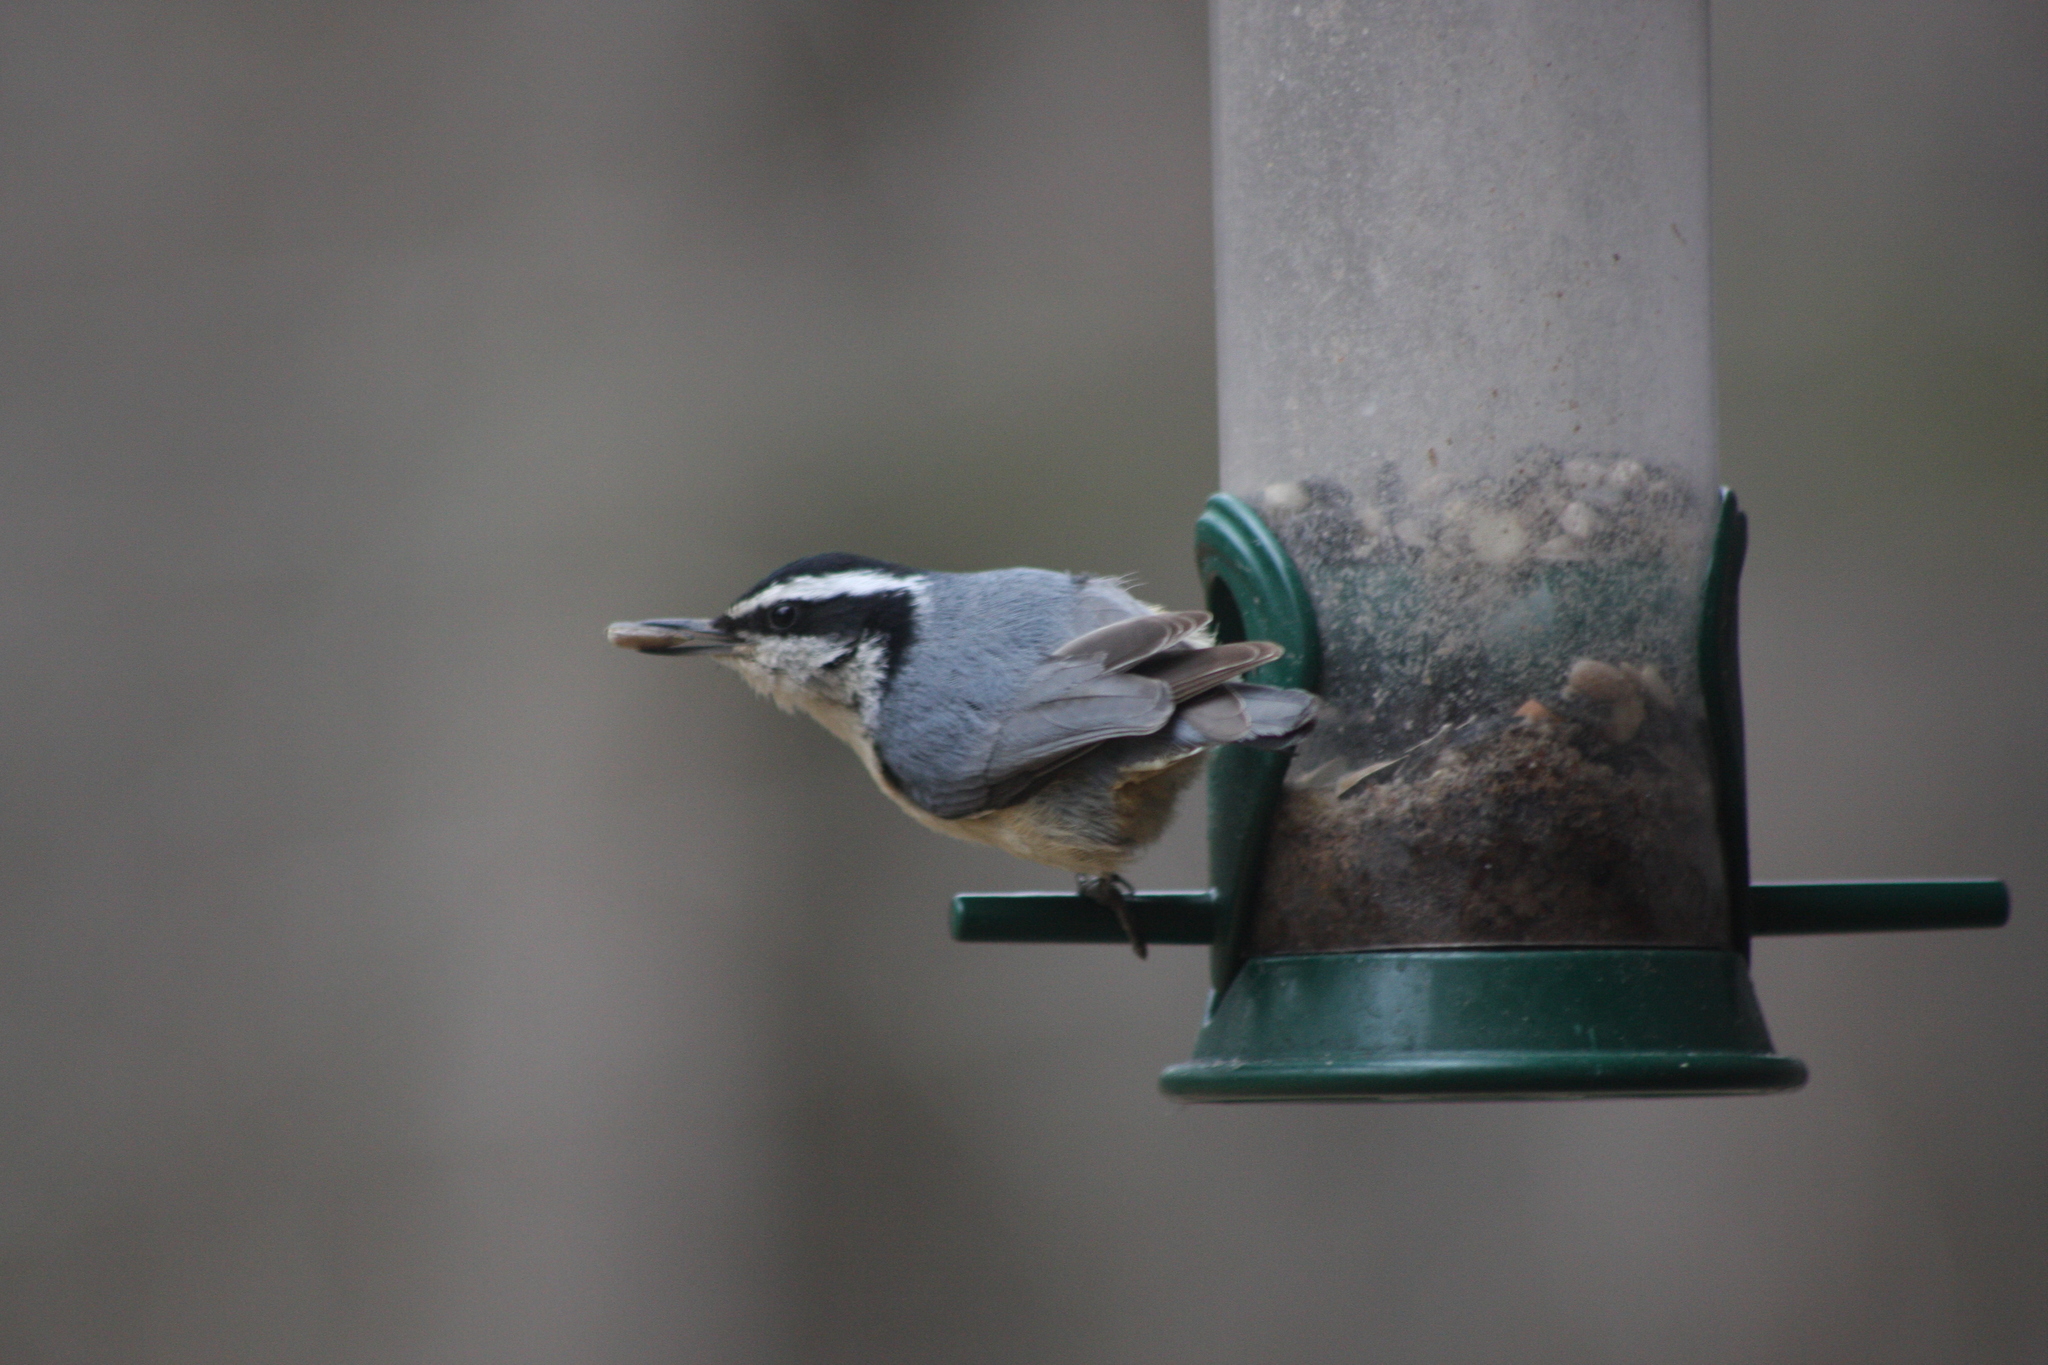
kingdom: Animalia
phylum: Chordata
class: Aves
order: Passeriformes
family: Sittidae
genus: Sitta
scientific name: Sitta canadensis
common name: Red-breasted nuthatch
